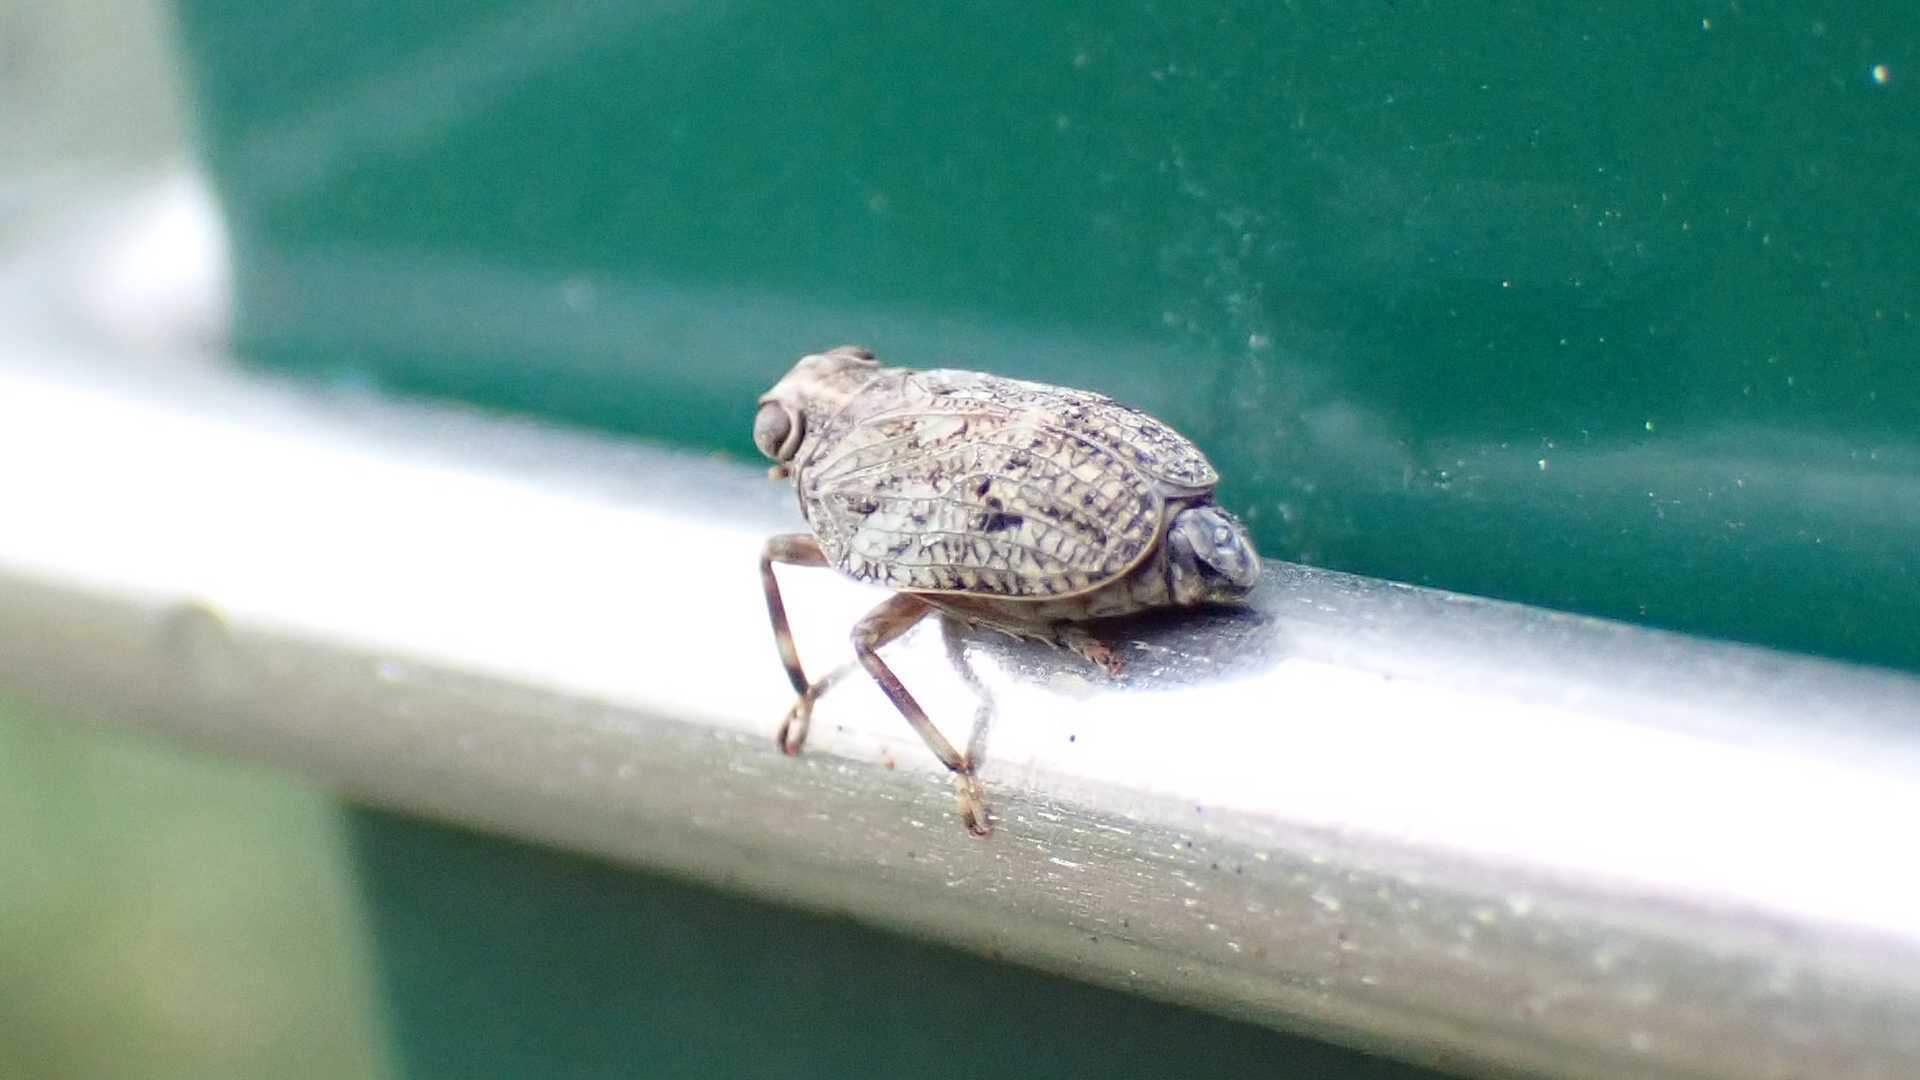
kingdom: Animalia
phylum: Arthropoda
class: Insecta
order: Hemiptera
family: Issidae
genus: Issus
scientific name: Issus coleoptratus
